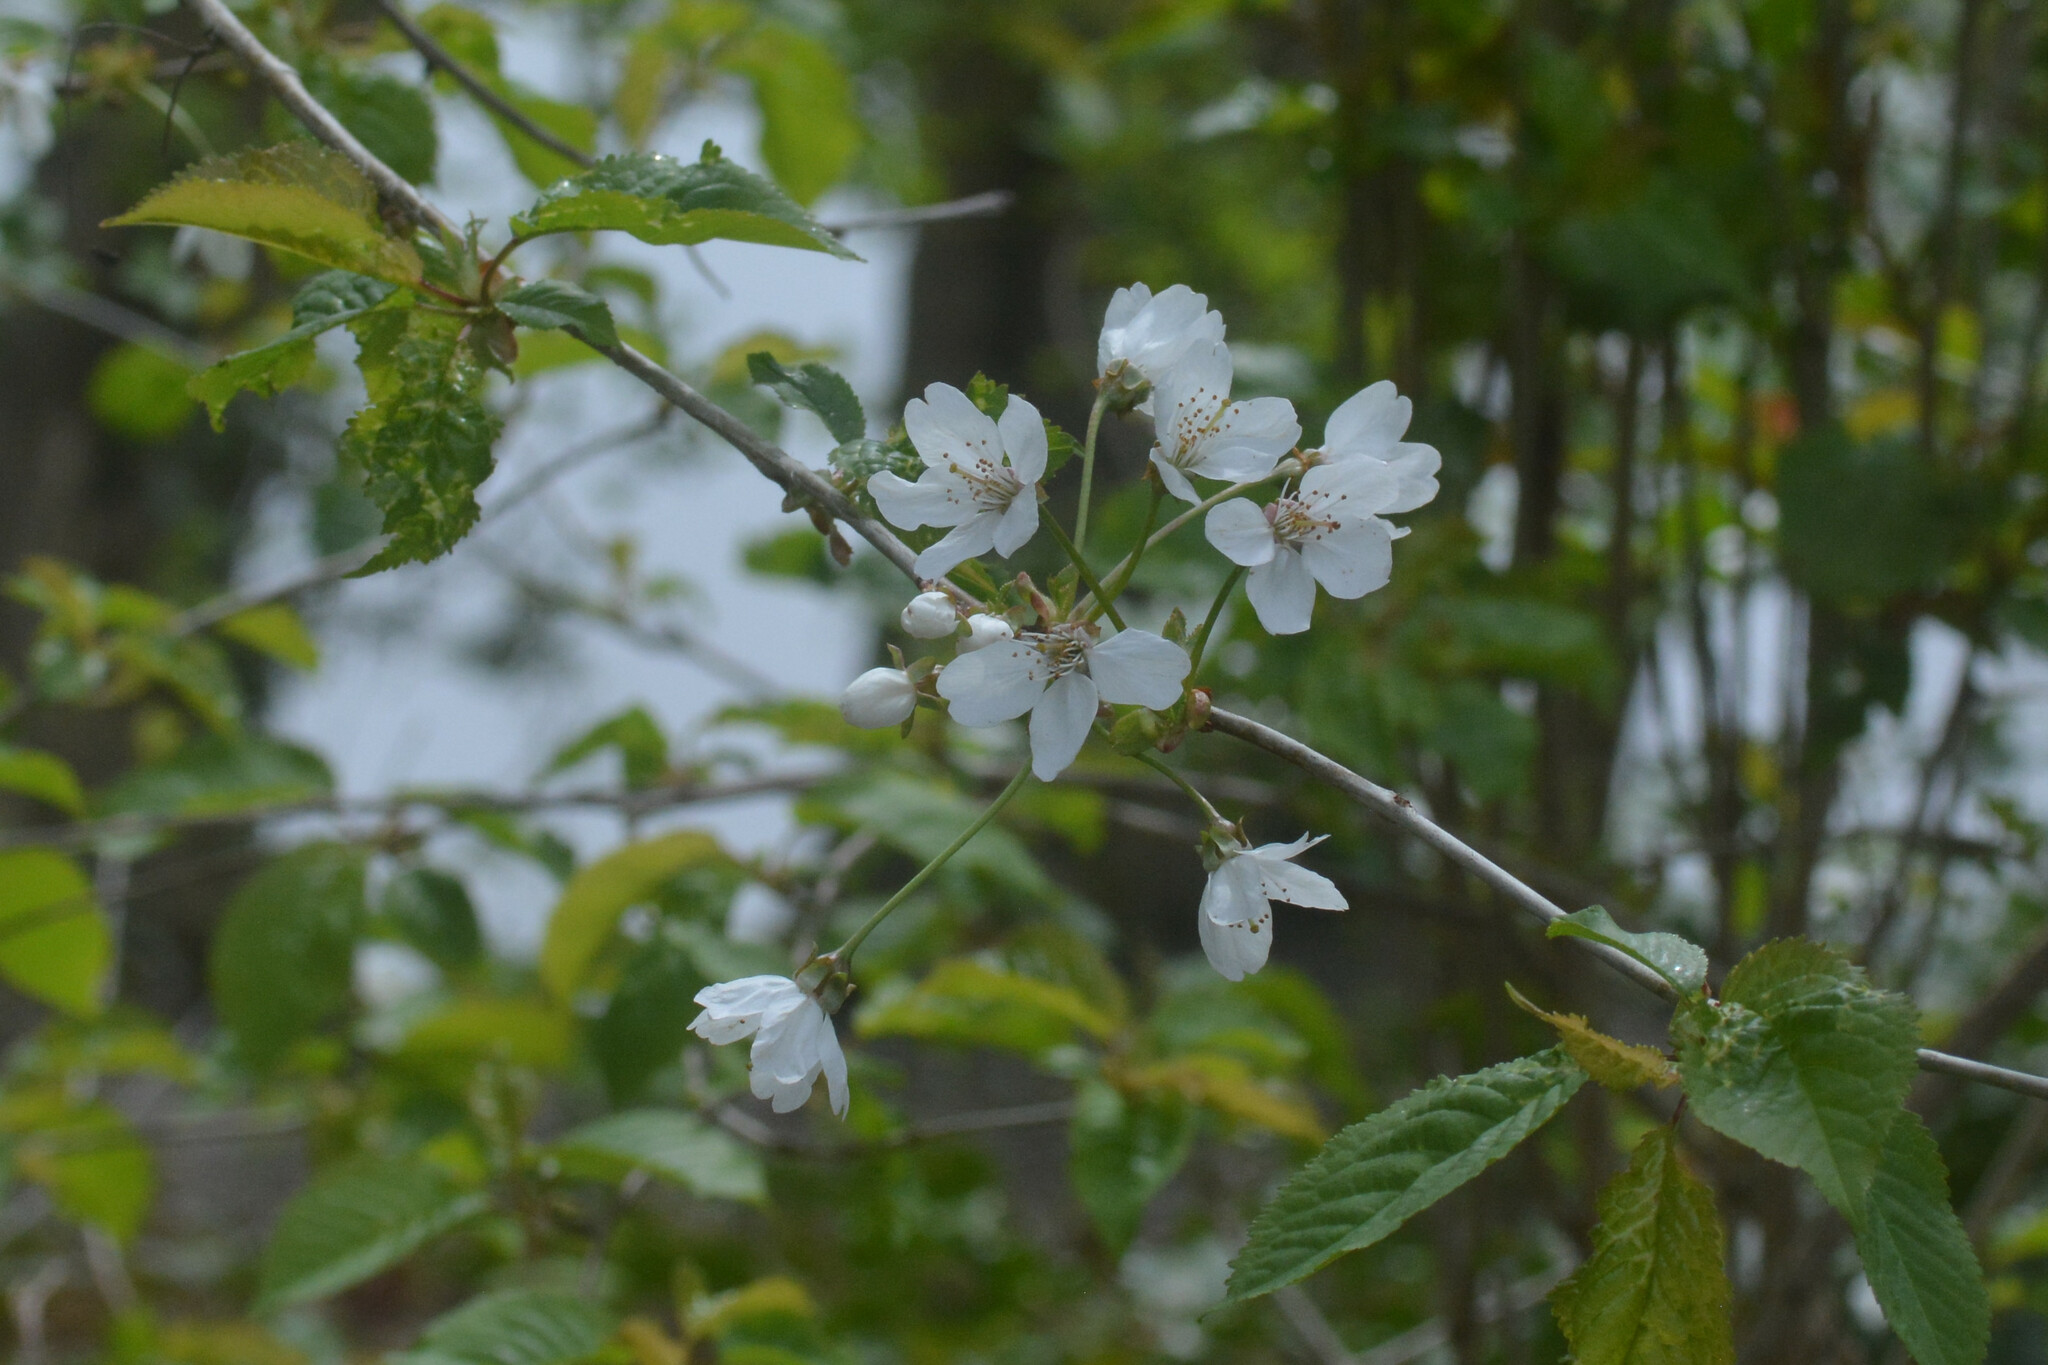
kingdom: Plantae
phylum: Tracheophyta
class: Magnoliopsida
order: Rosales
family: Rosaceae
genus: Prunus
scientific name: Prunus avium
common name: Sweet cherry
